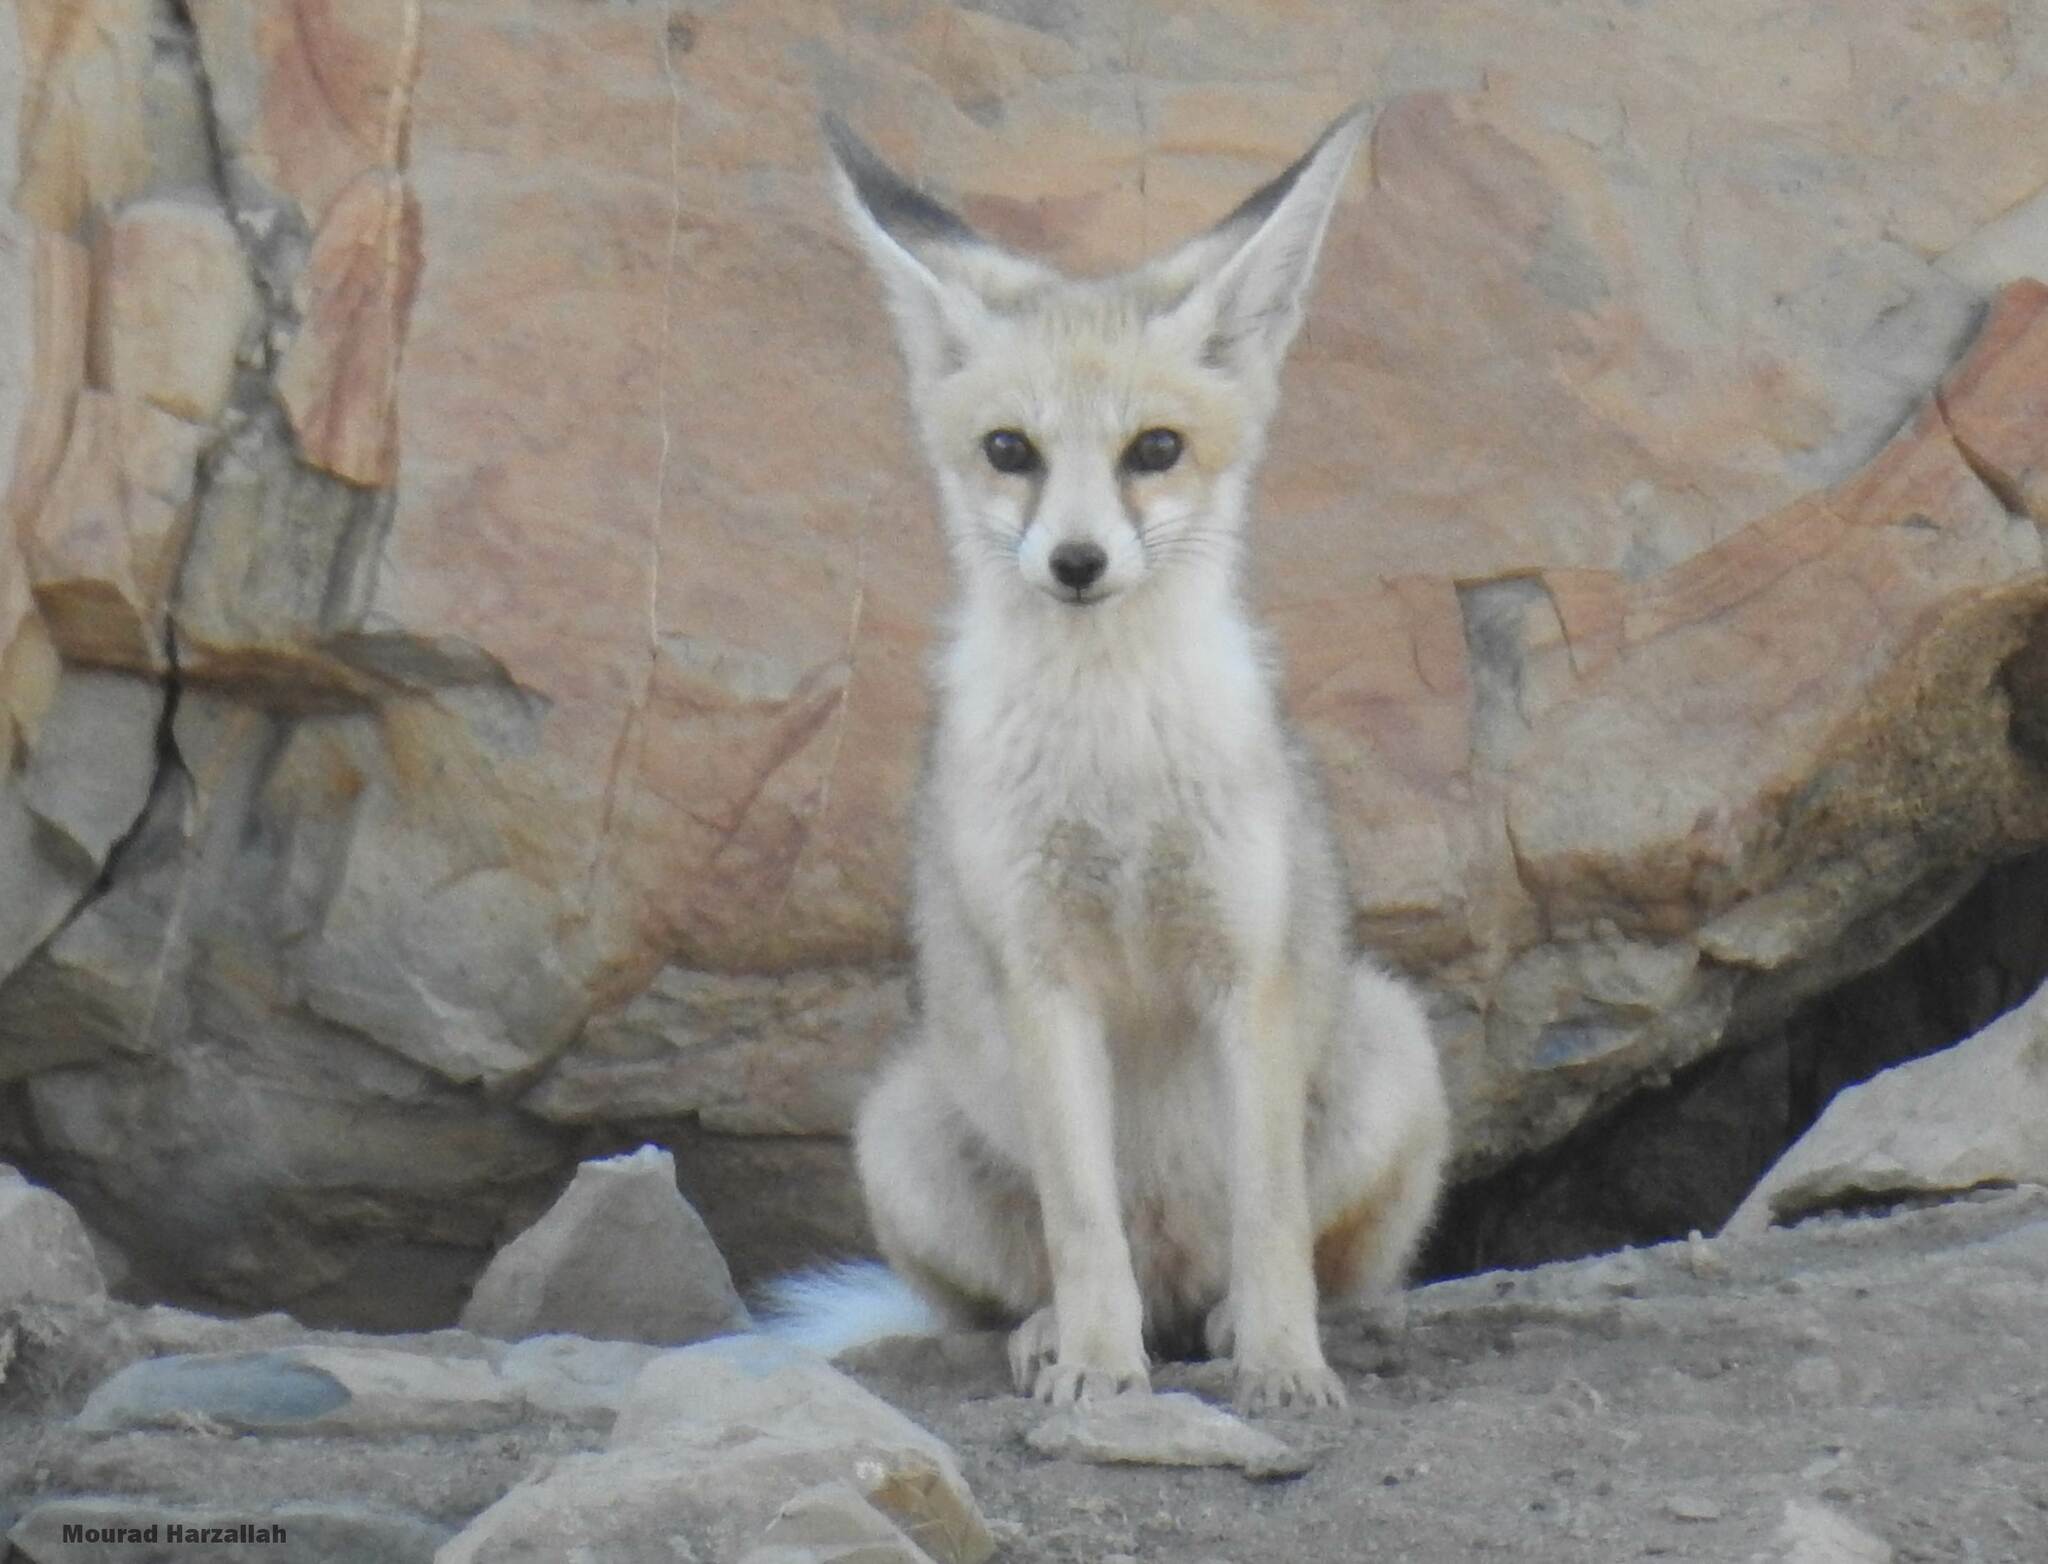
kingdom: Animalia
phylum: Chordata
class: Mammalia
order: Carnivora
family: Canidae
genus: Vulpes
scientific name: Vulpes vulpes
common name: Red fox
